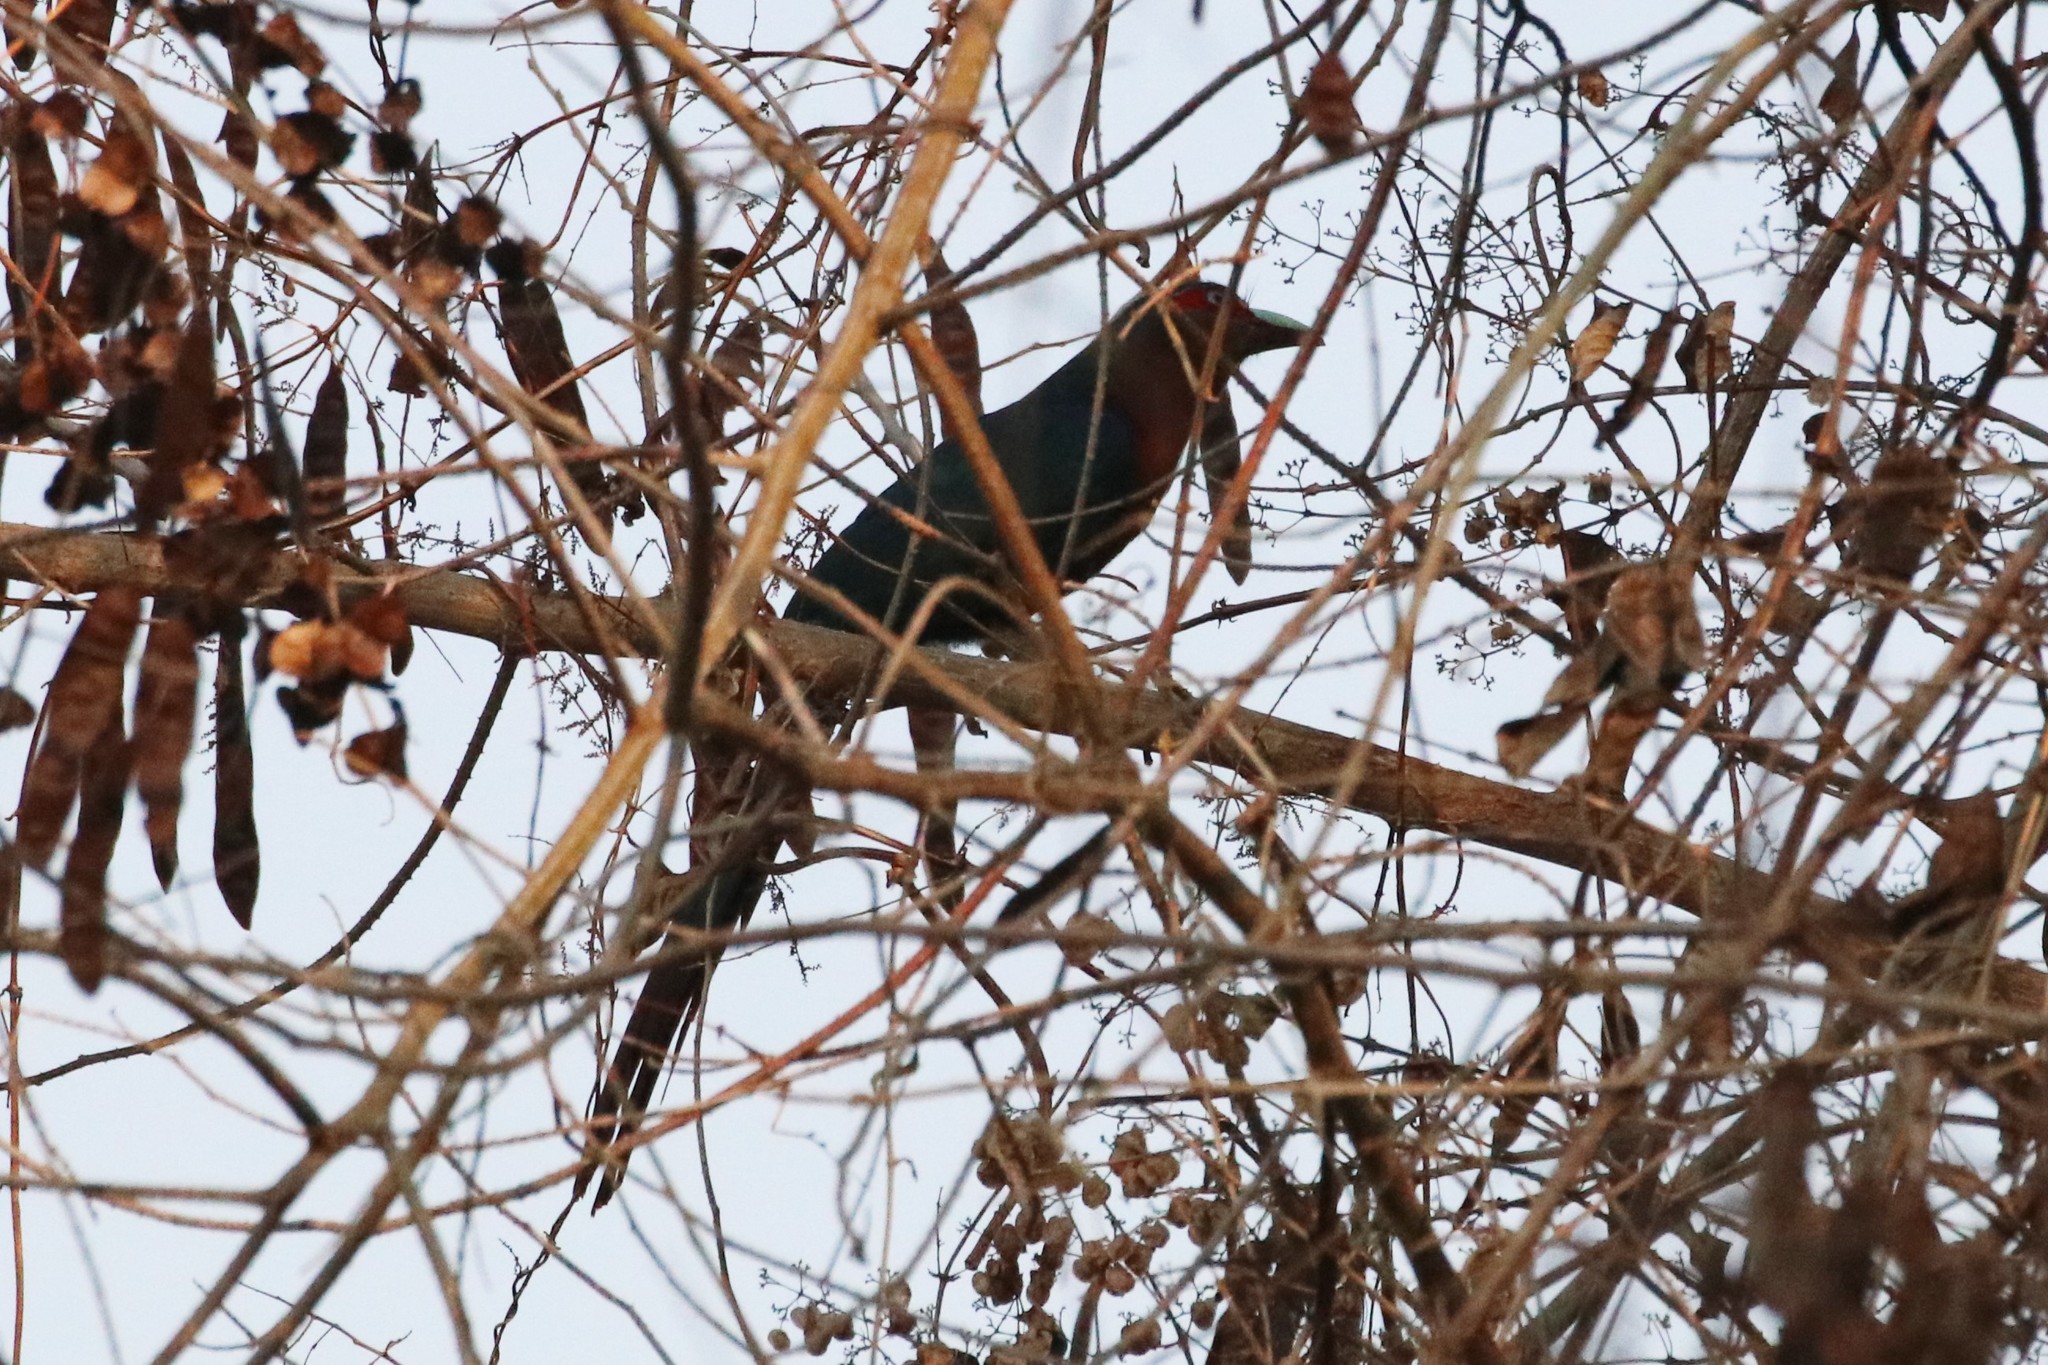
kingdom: Animalia
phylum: Chordata
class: Aves
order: Cuculiformes
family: Cuculidae
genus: Zanclostomus
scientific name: Zanclostomus curvirostris
